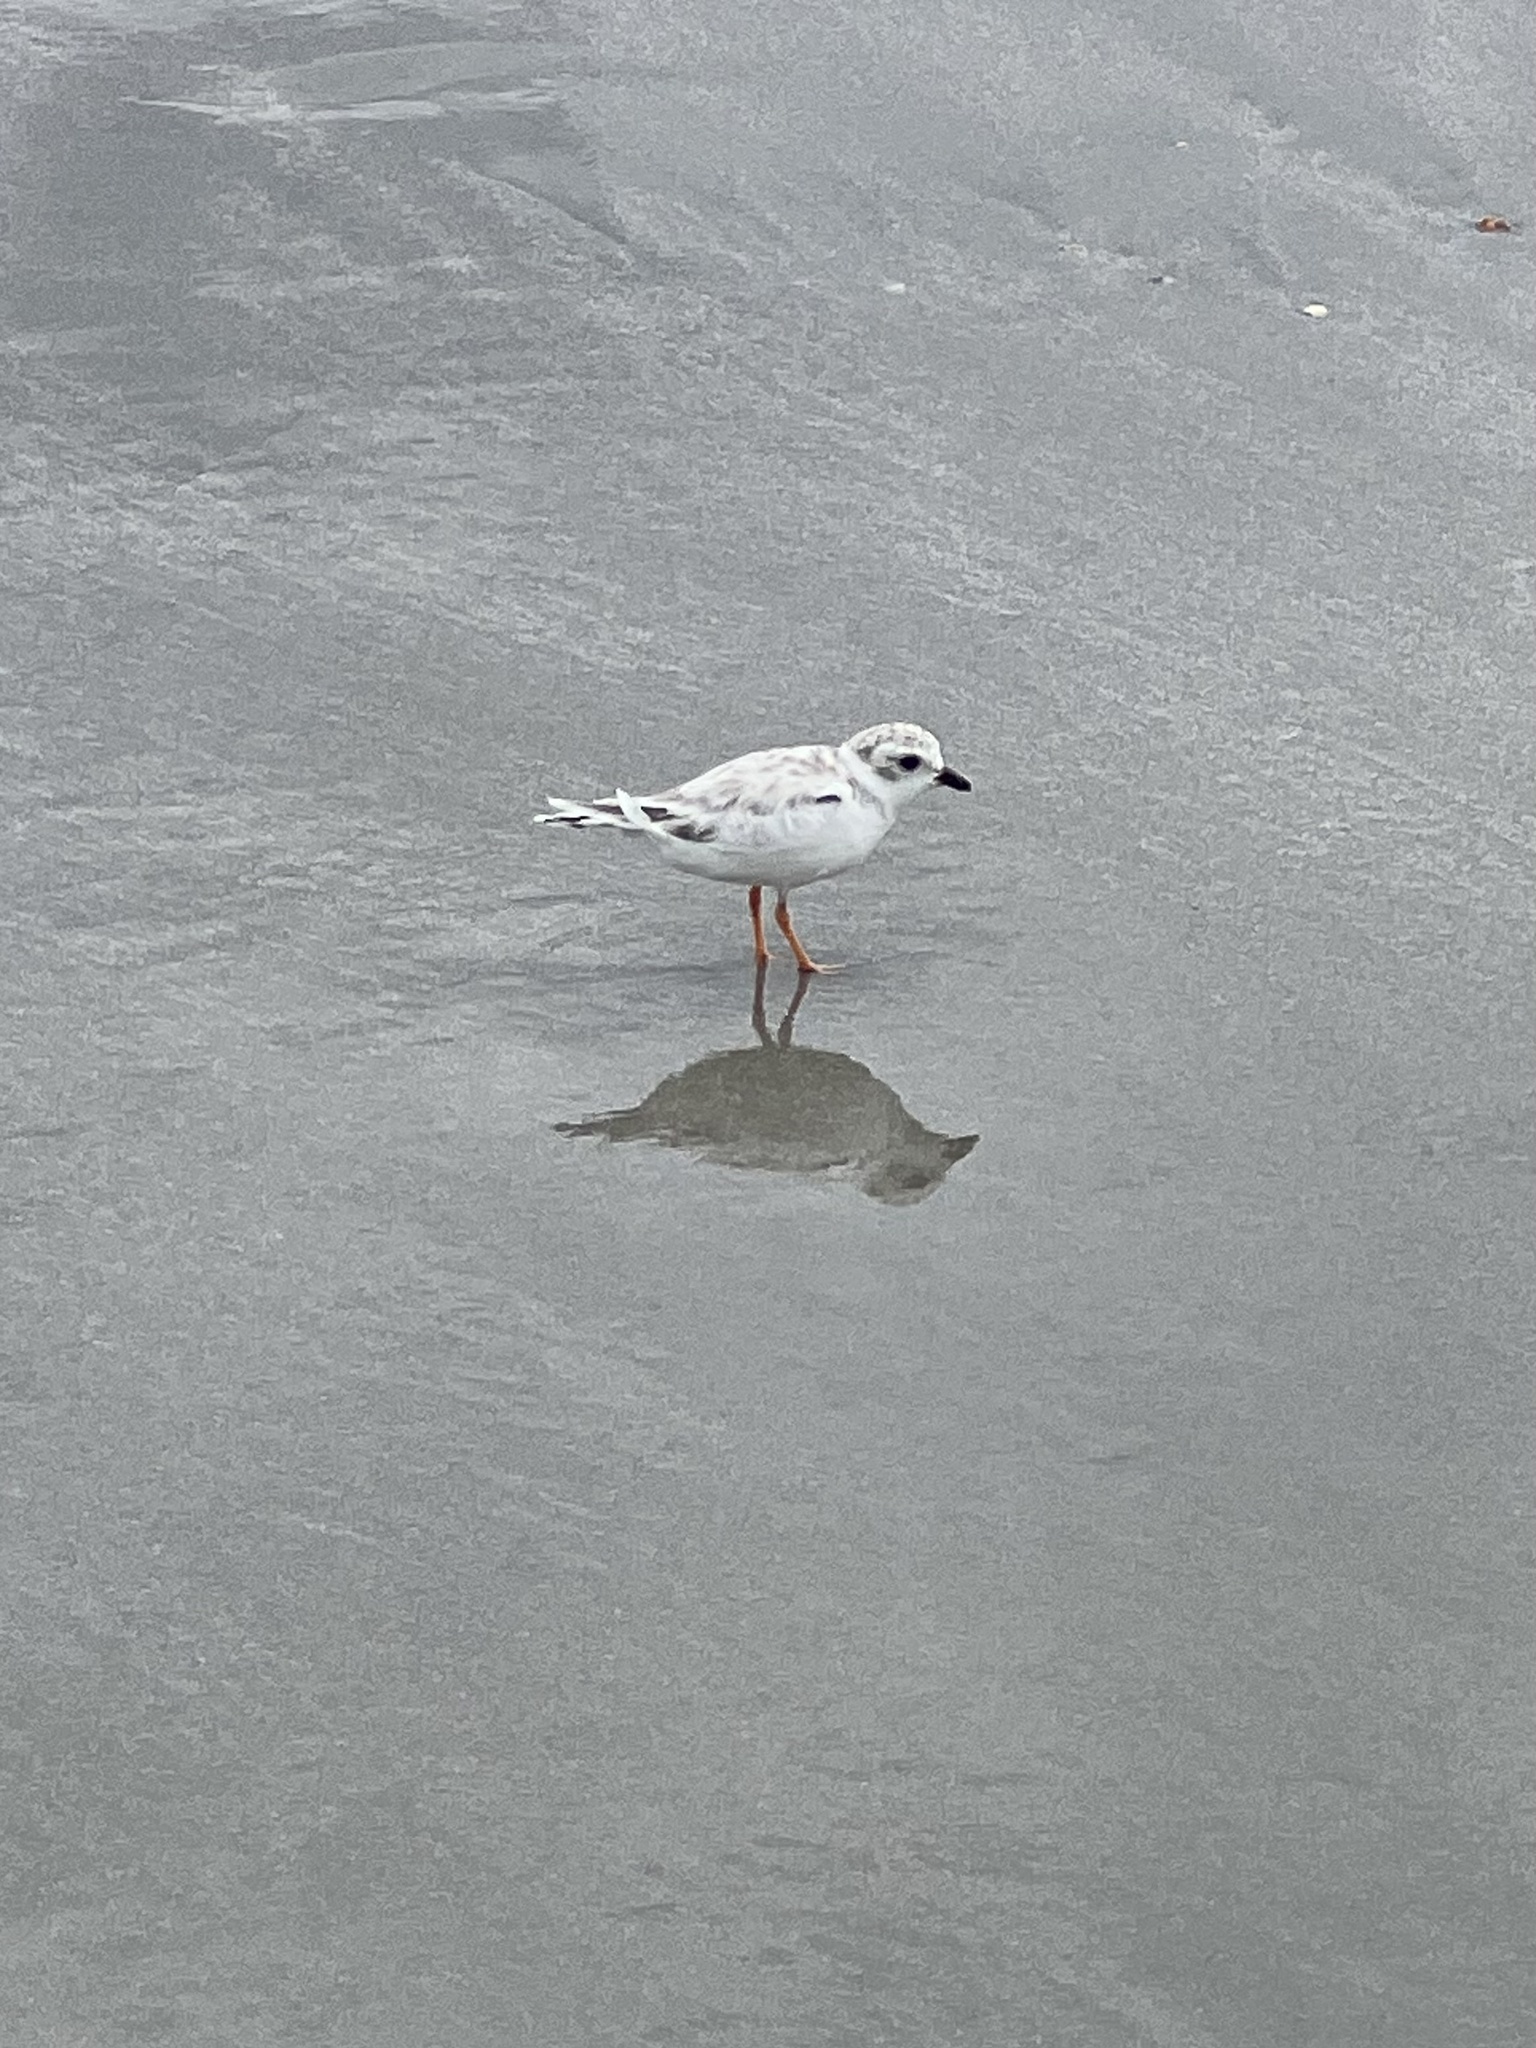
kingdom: Animalia
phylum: Chordata
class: Aves
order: Charadriiformes
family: Charadriidae
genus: Charadrius
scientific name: Charadrius melodus
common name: Piping plover
